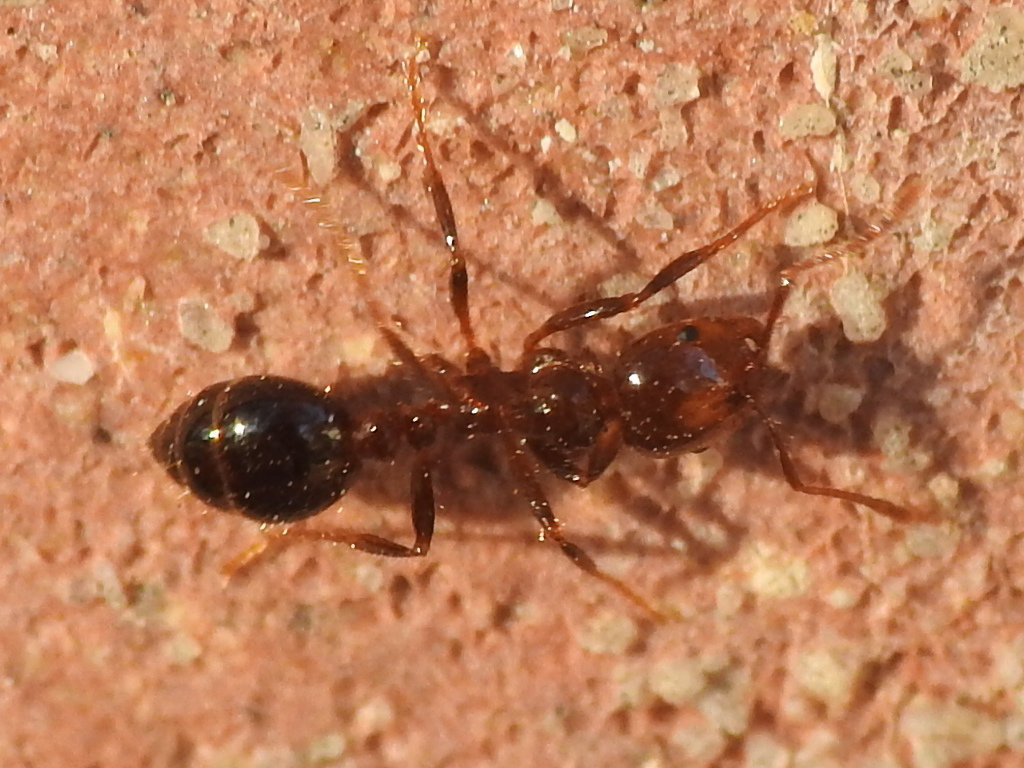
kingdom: Animalia
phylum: Arthropoda
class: Insecta
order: Hymenoptera
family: Formicidae
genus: Solenopsis
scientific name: Solenopsis invicta
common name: Red imported fire ant
